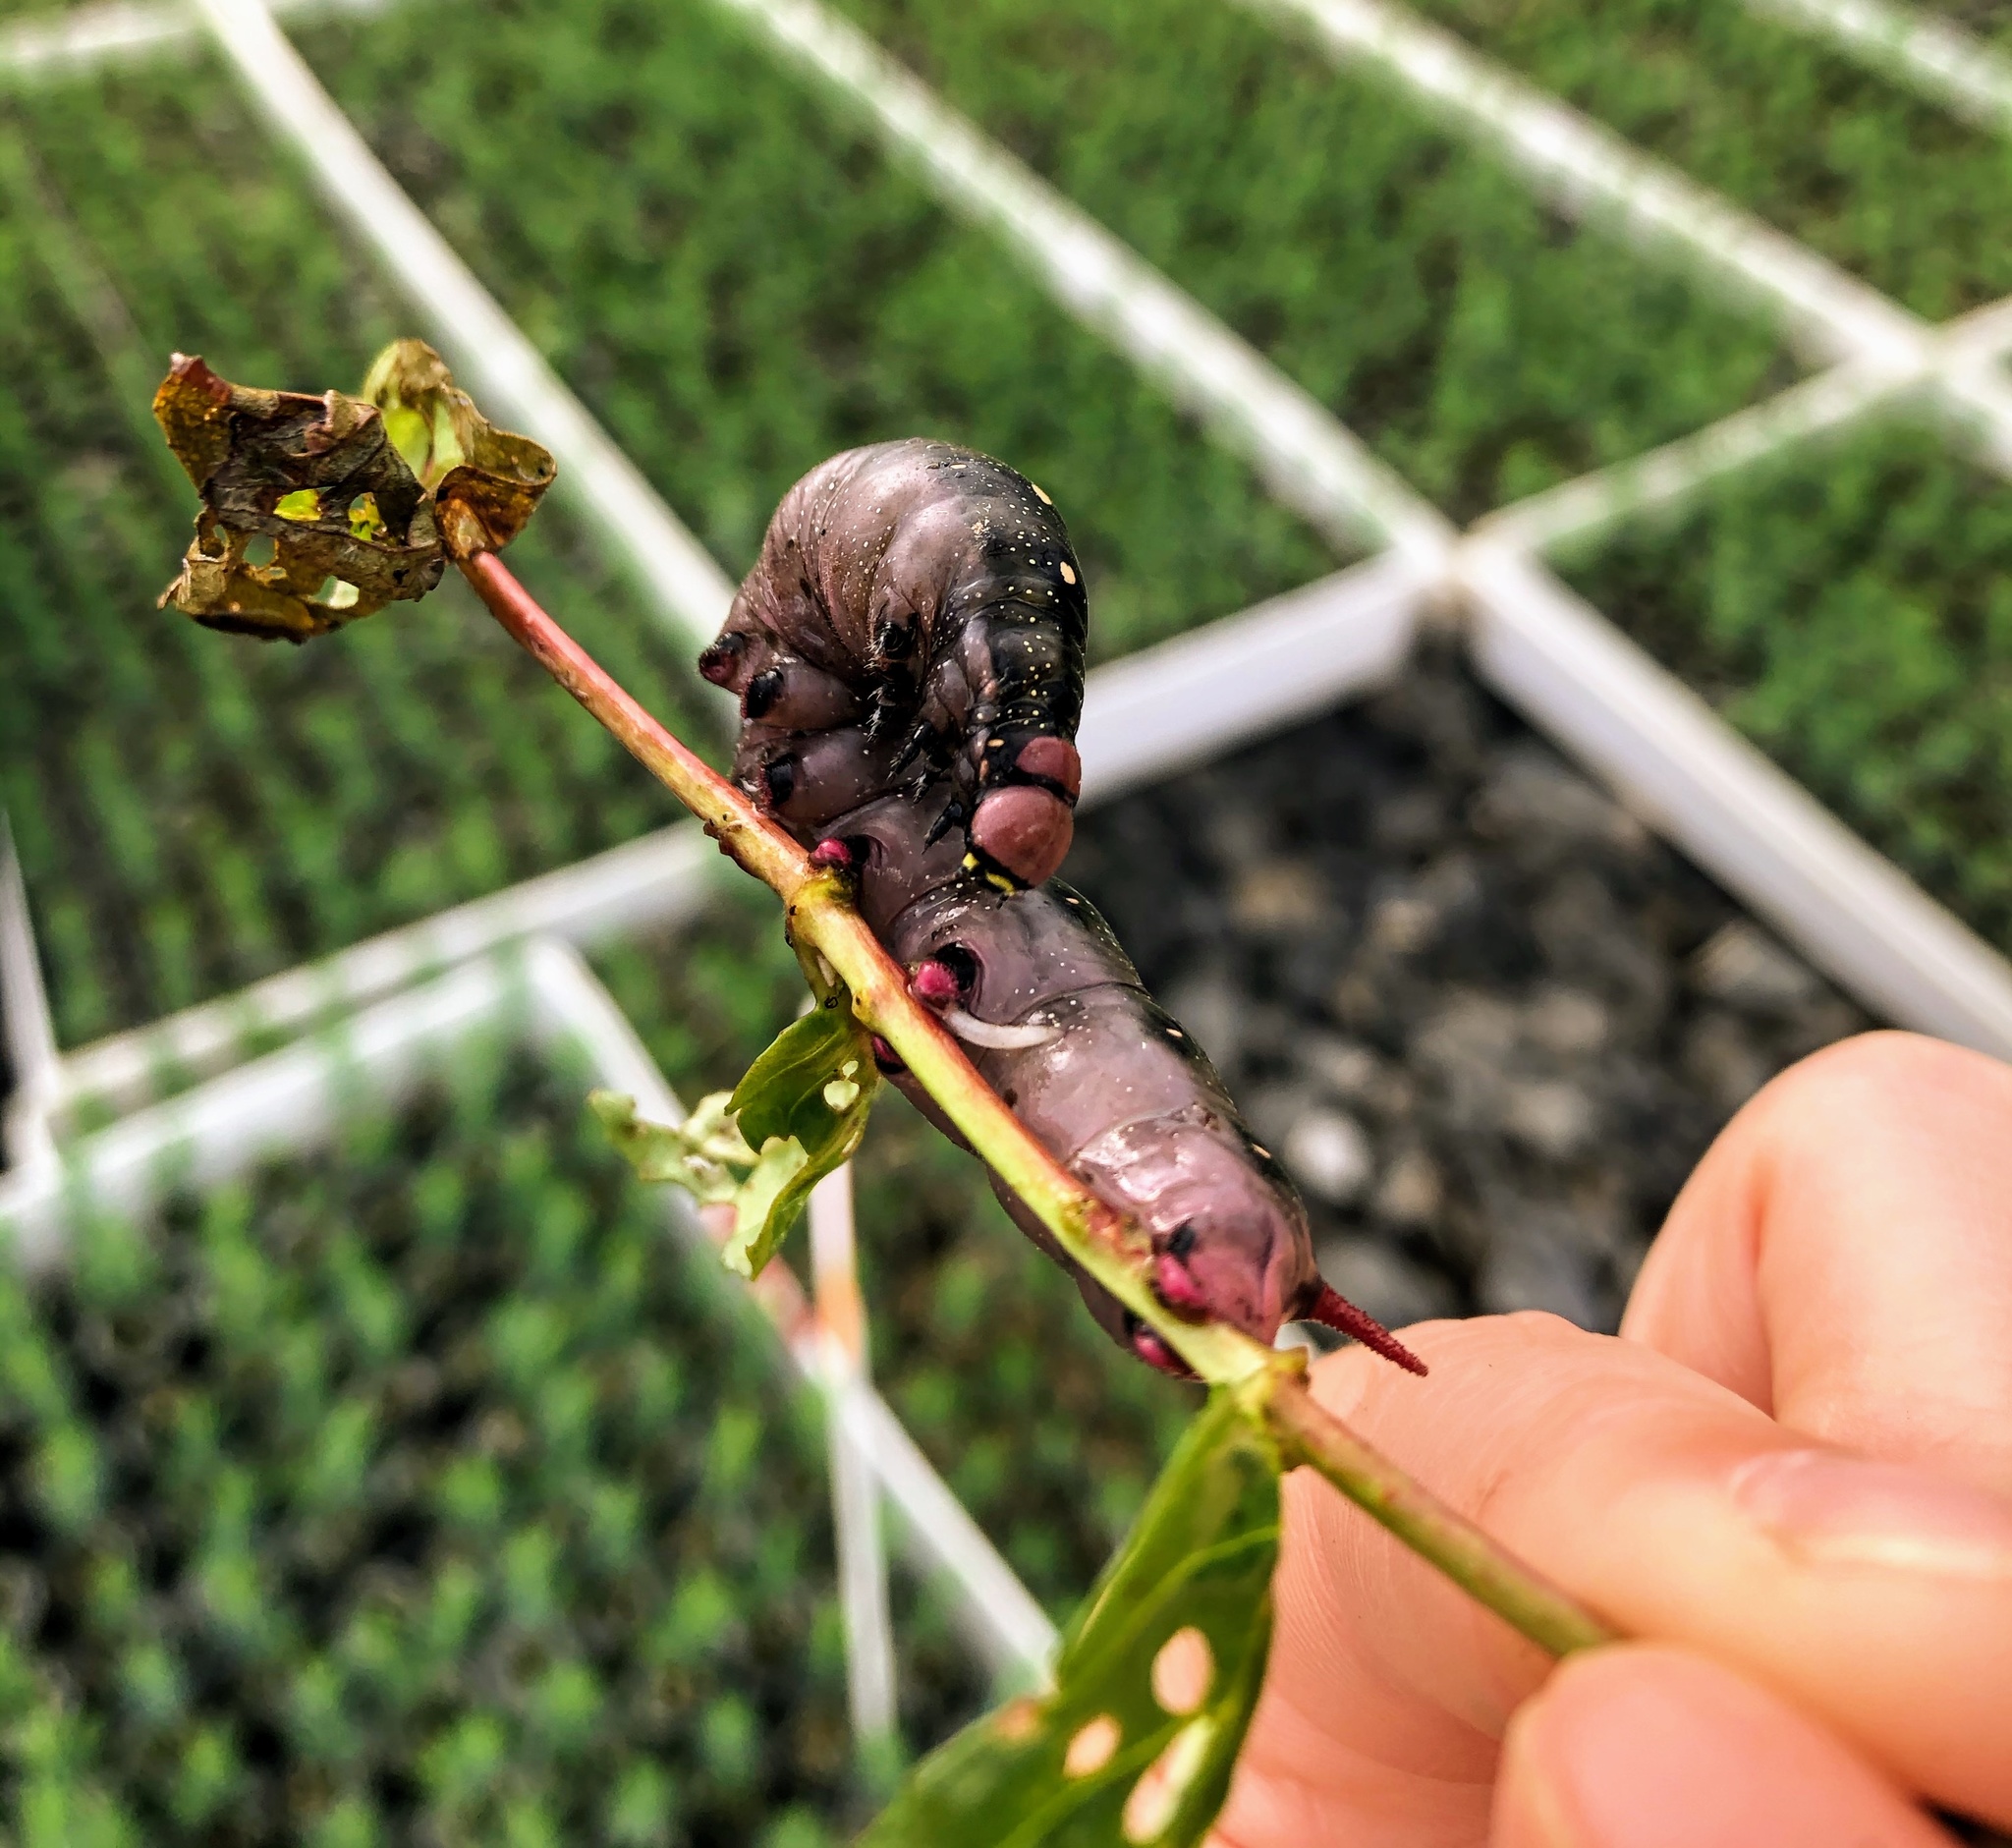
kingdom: Animalia
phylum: Arthropoda
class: Insecta
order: Lepidoptera
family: Sphingidae
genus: Hyles
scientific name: Hyles gallii
